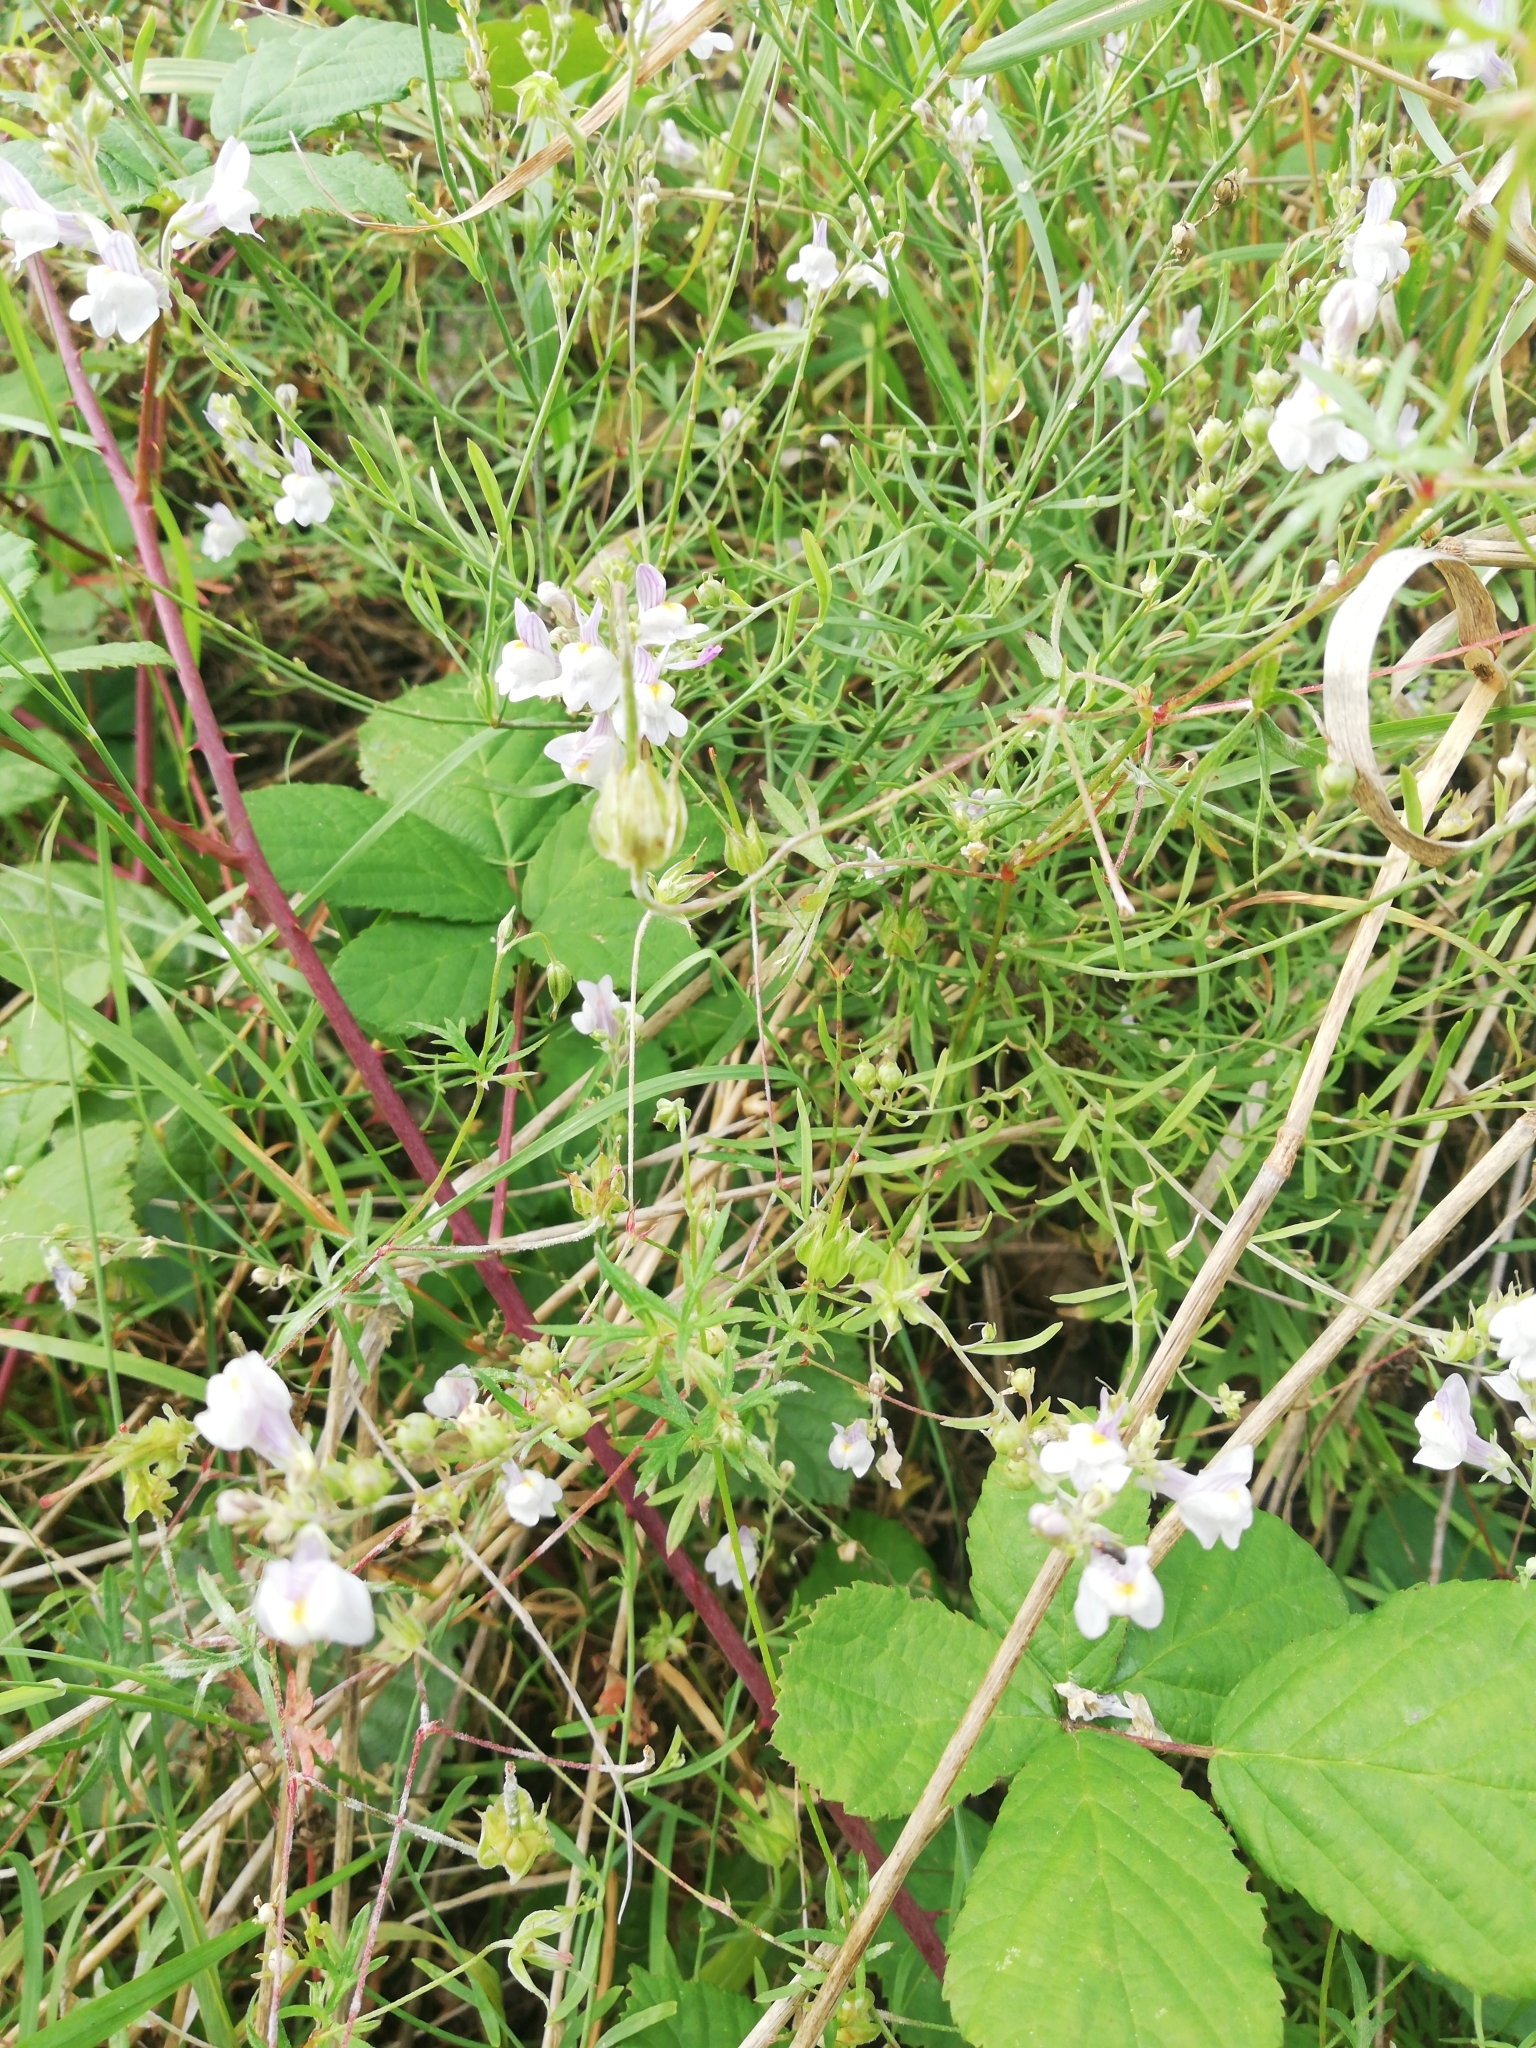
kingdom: Plantae
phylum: Tracheophyta
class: Magnoliopsida
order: Lamiales
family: Plantaginaceae
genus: Linaria
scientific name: Linaria repens
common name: Pale toadflax
